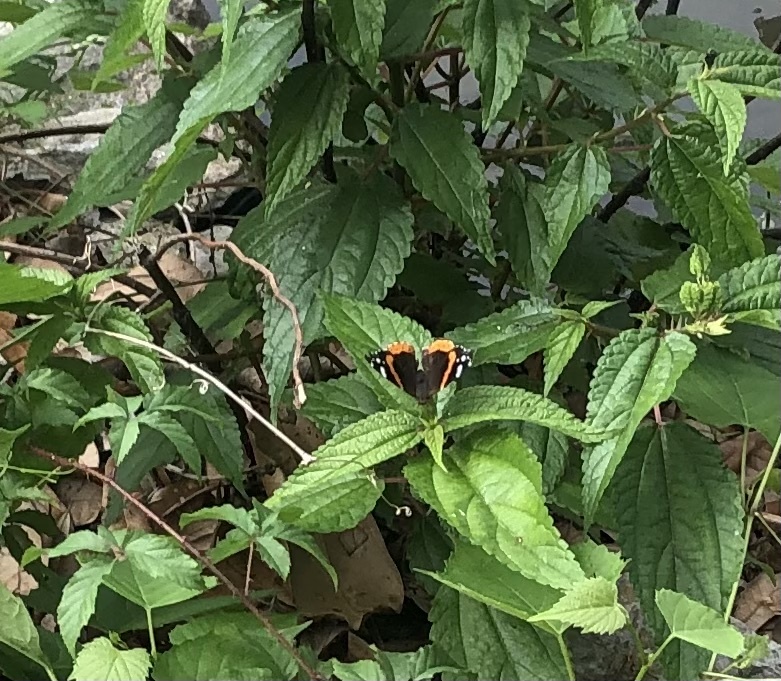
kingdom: Animalia
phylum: Arthropoda
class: Insecta
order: Lepidoptera
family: Nymphalidae
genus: Vanessa
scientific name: Vanessa atalanta
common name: Red admiral
